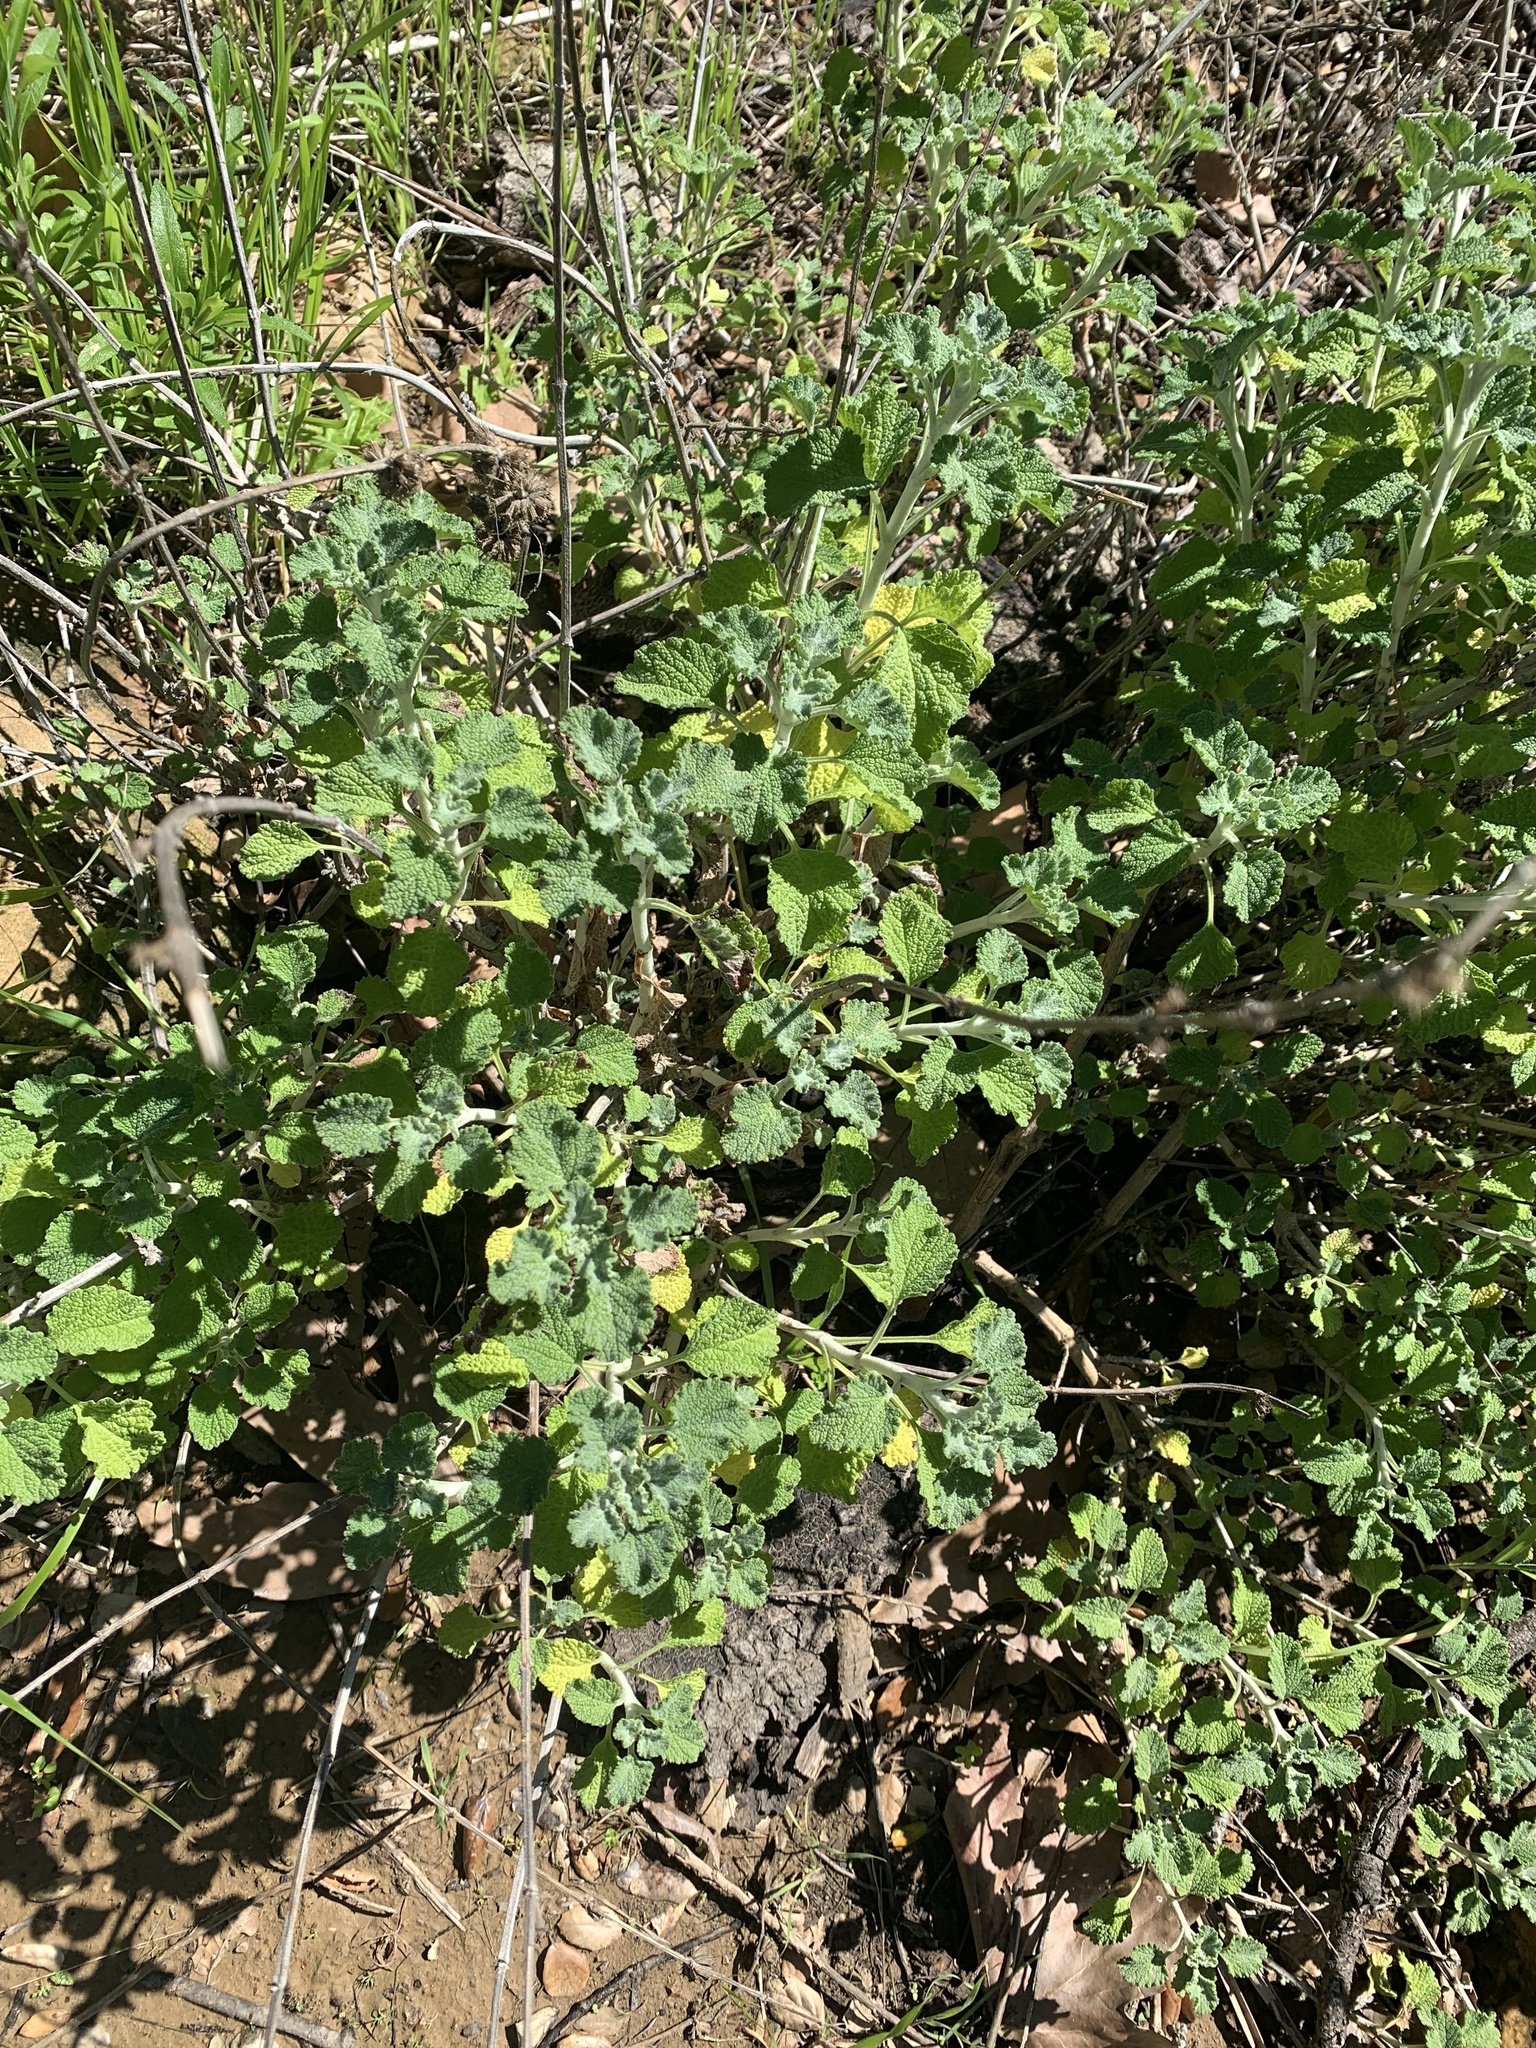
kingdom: Plantae
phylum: Tracheophyta
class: Magnoliopsida
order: Lamiales
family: Lamiaceae
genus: Marrubium
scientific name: Marrubium vulgare
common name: Horehound
